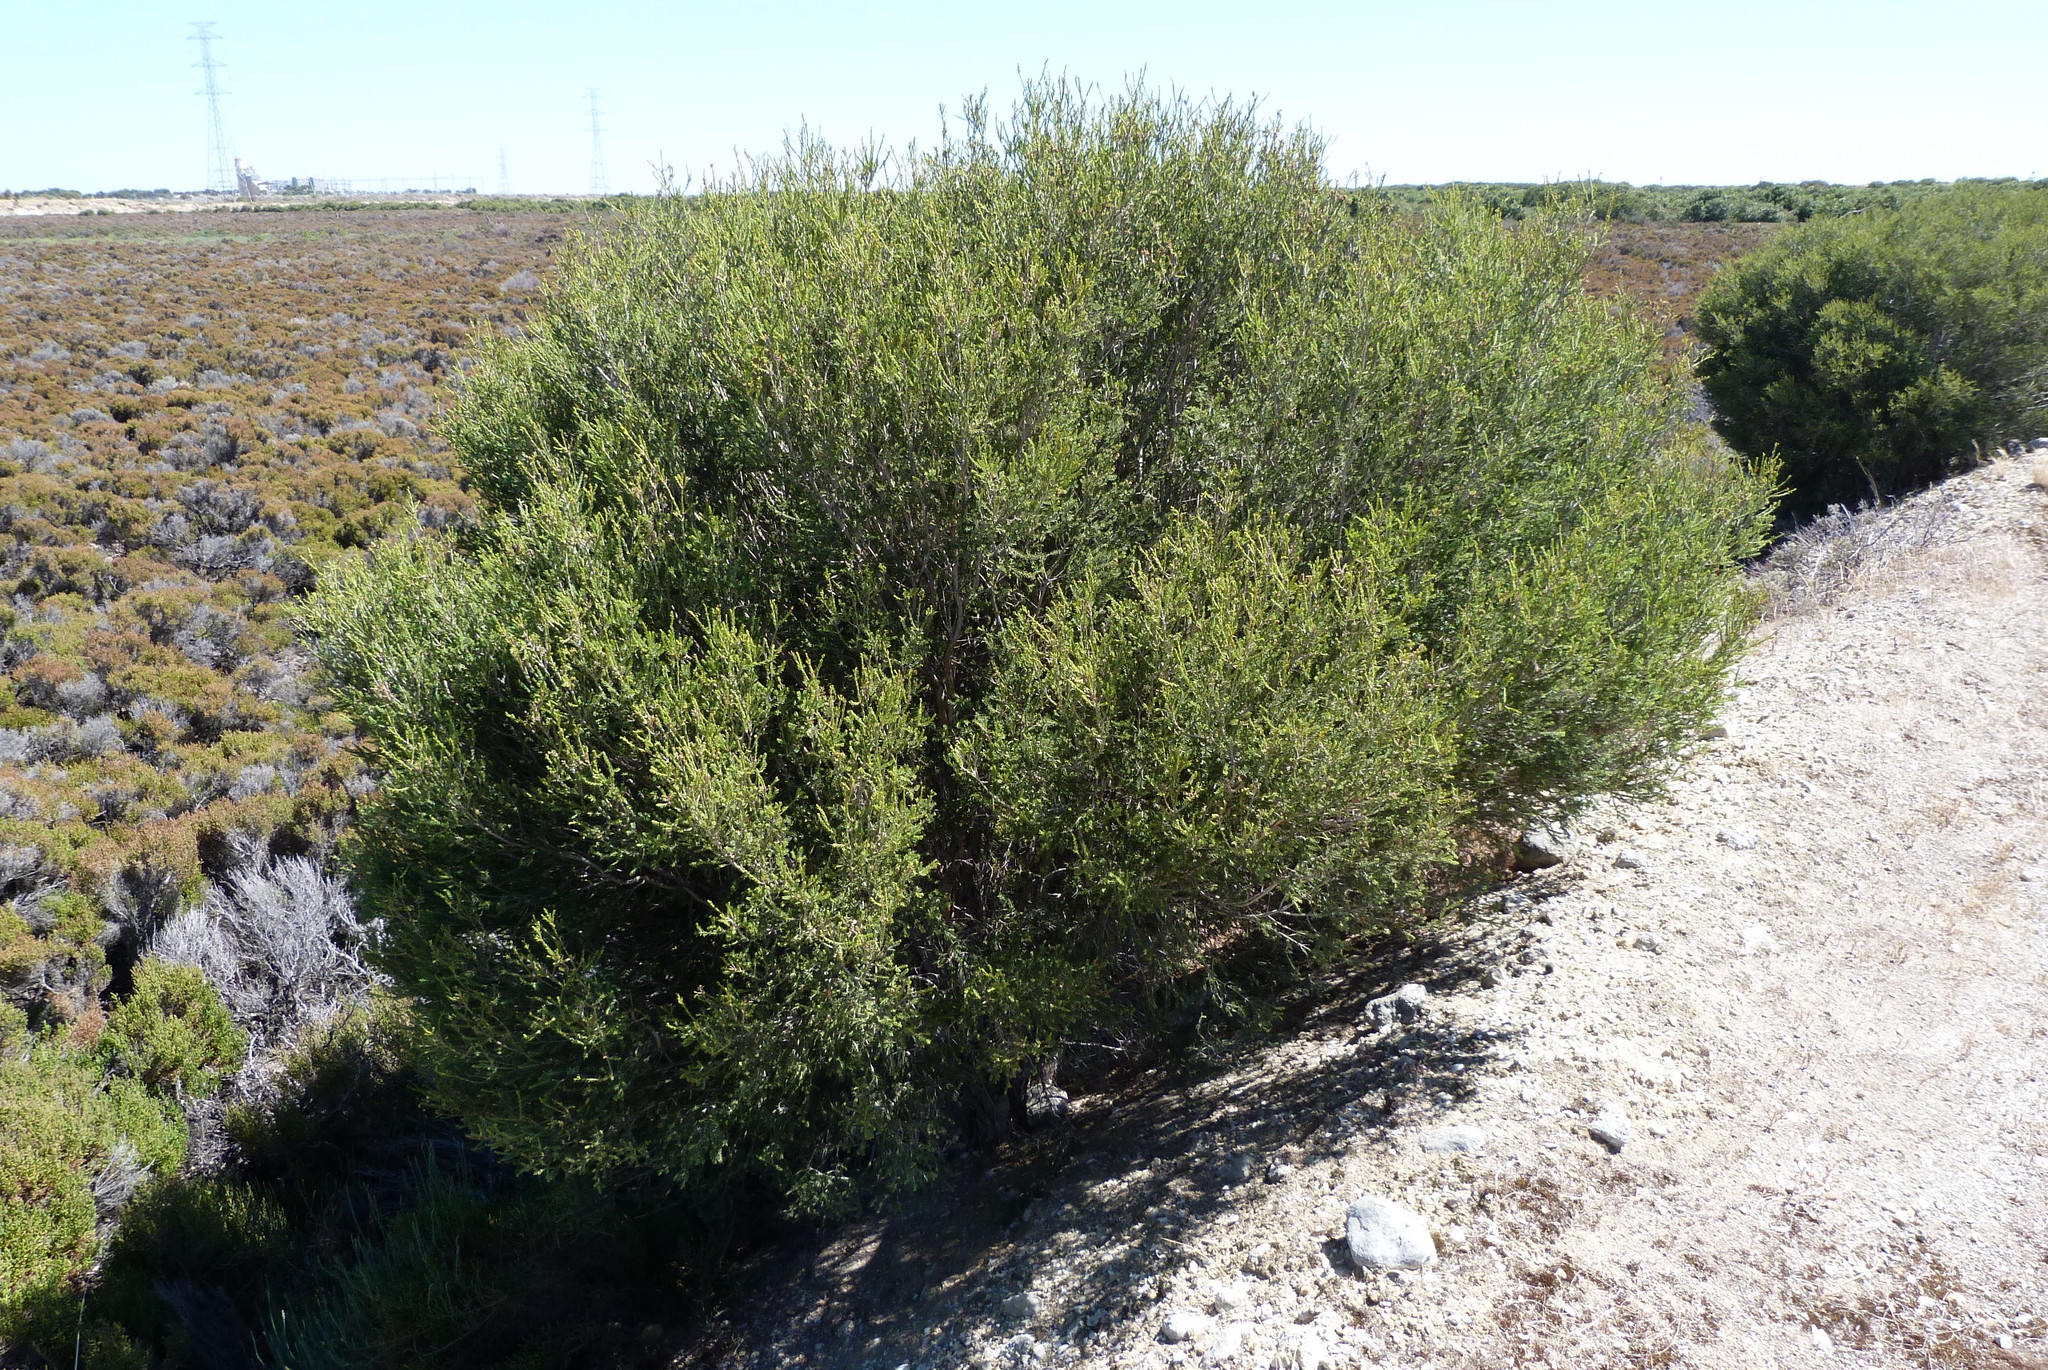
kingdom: Plantae
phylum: Tracheophyta
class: Magnoliopsida
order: Myrtales
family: Myrtaceae
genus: Melaleuca
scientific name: Melaleuca halmaturorum
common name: Coastal paper-bark
